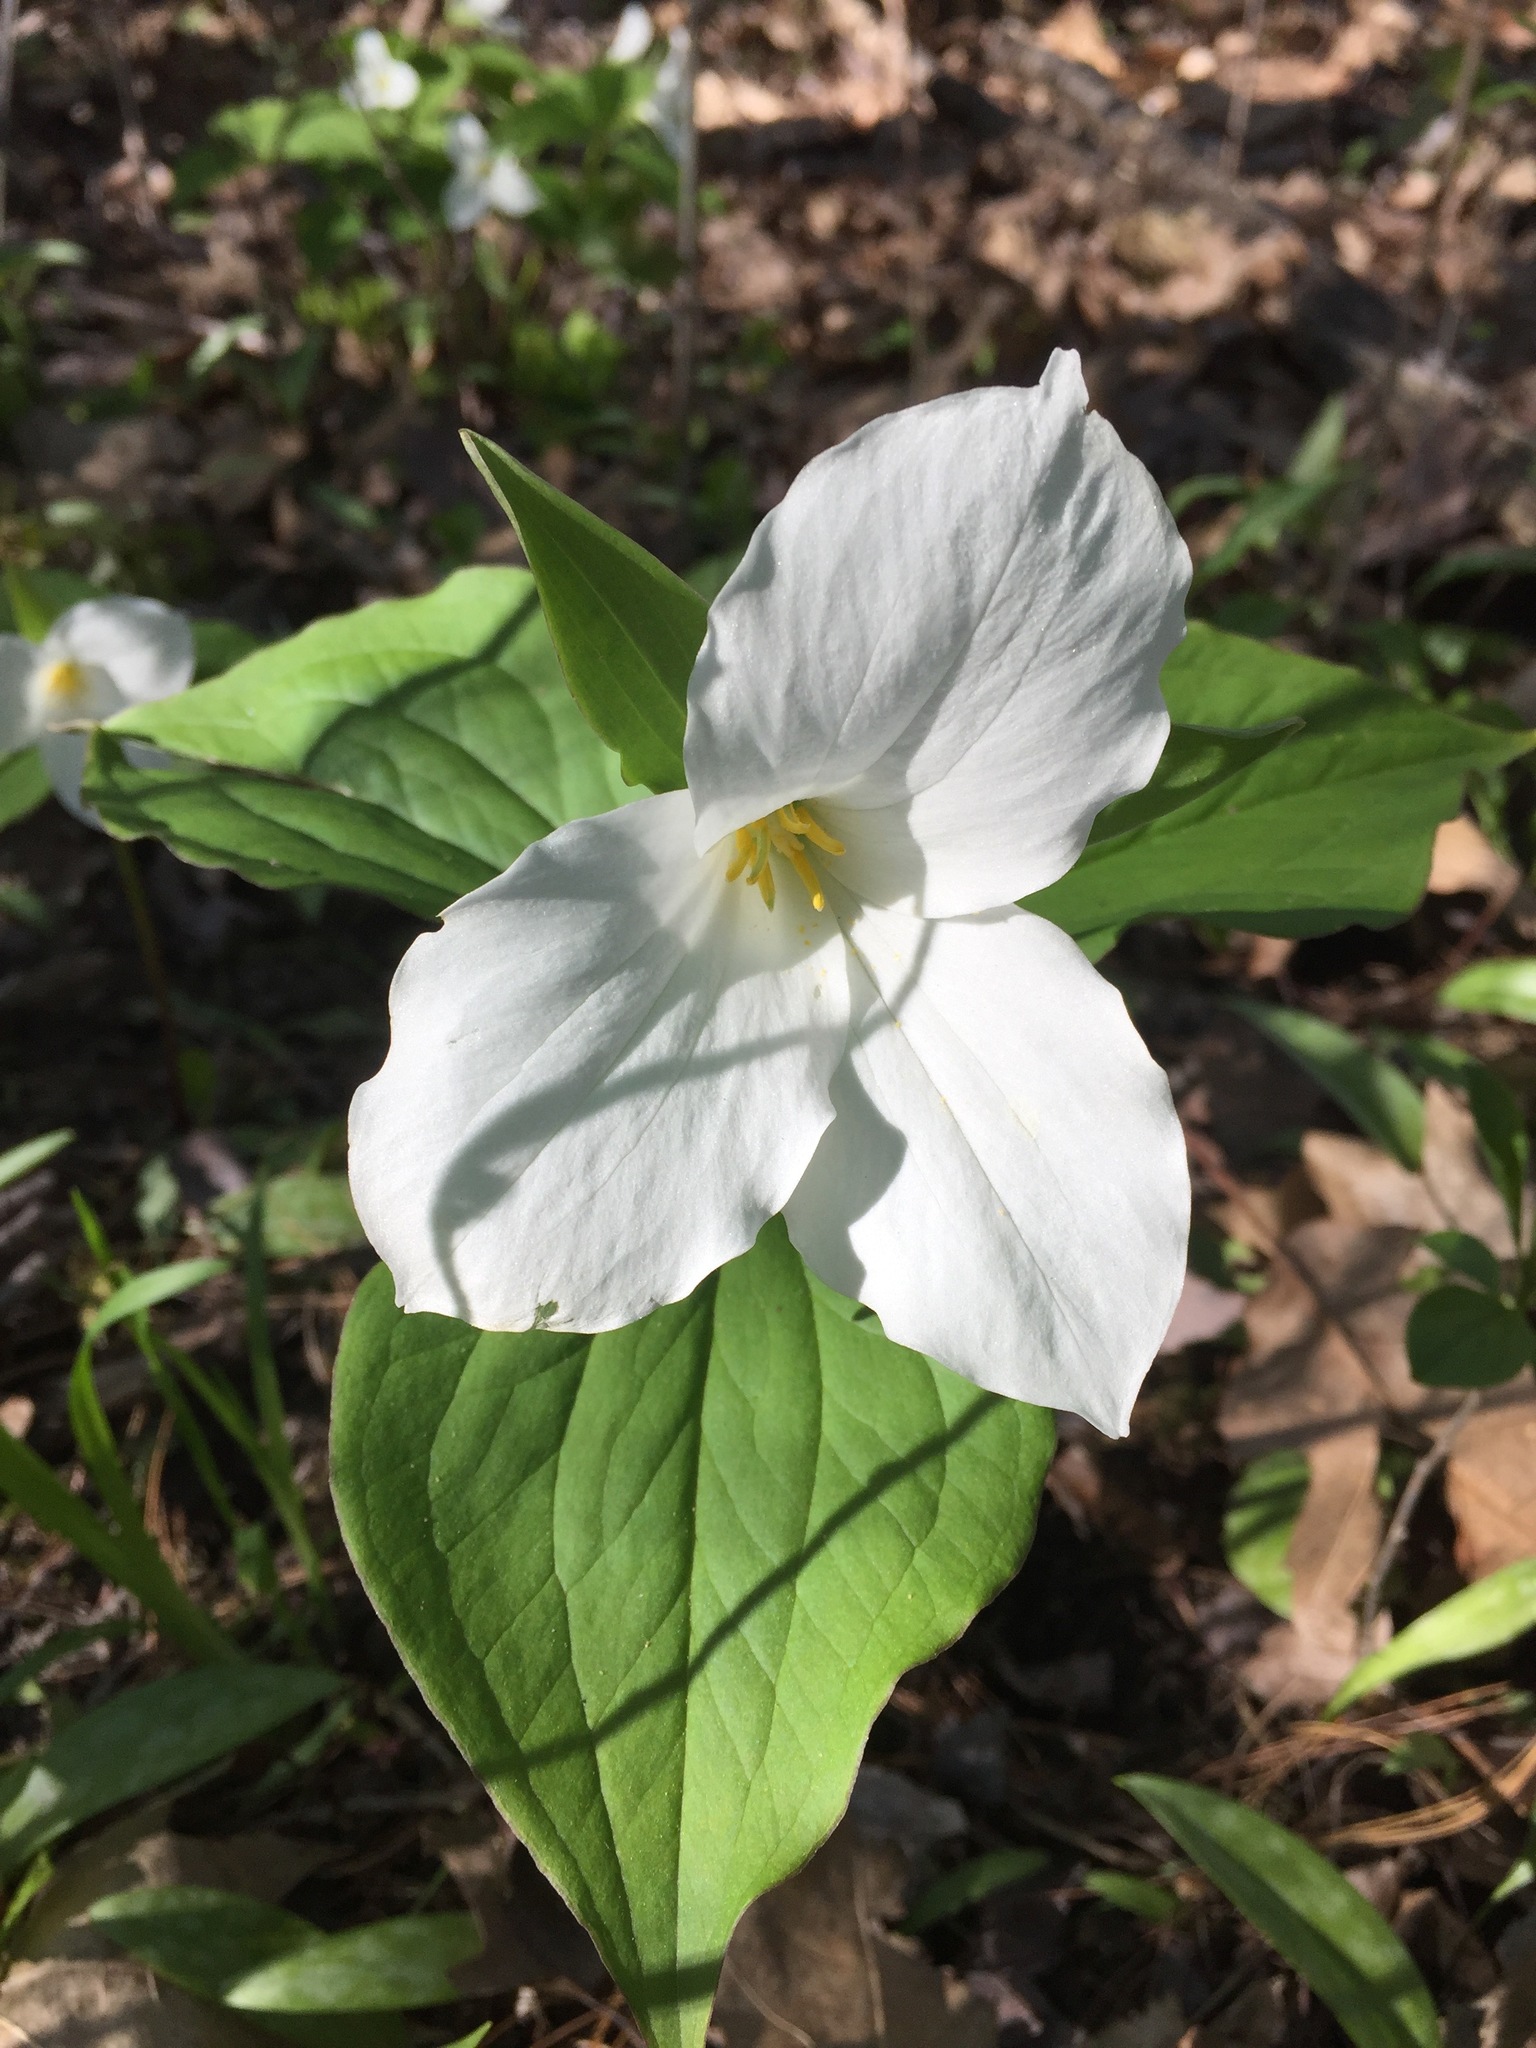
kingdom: Plantae
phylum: Tracheophyta
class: Liliopsida
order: Liliales
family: Melanthiaceae
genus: Trillium
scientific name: Trillium grandiflorum
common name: Great white trillium
